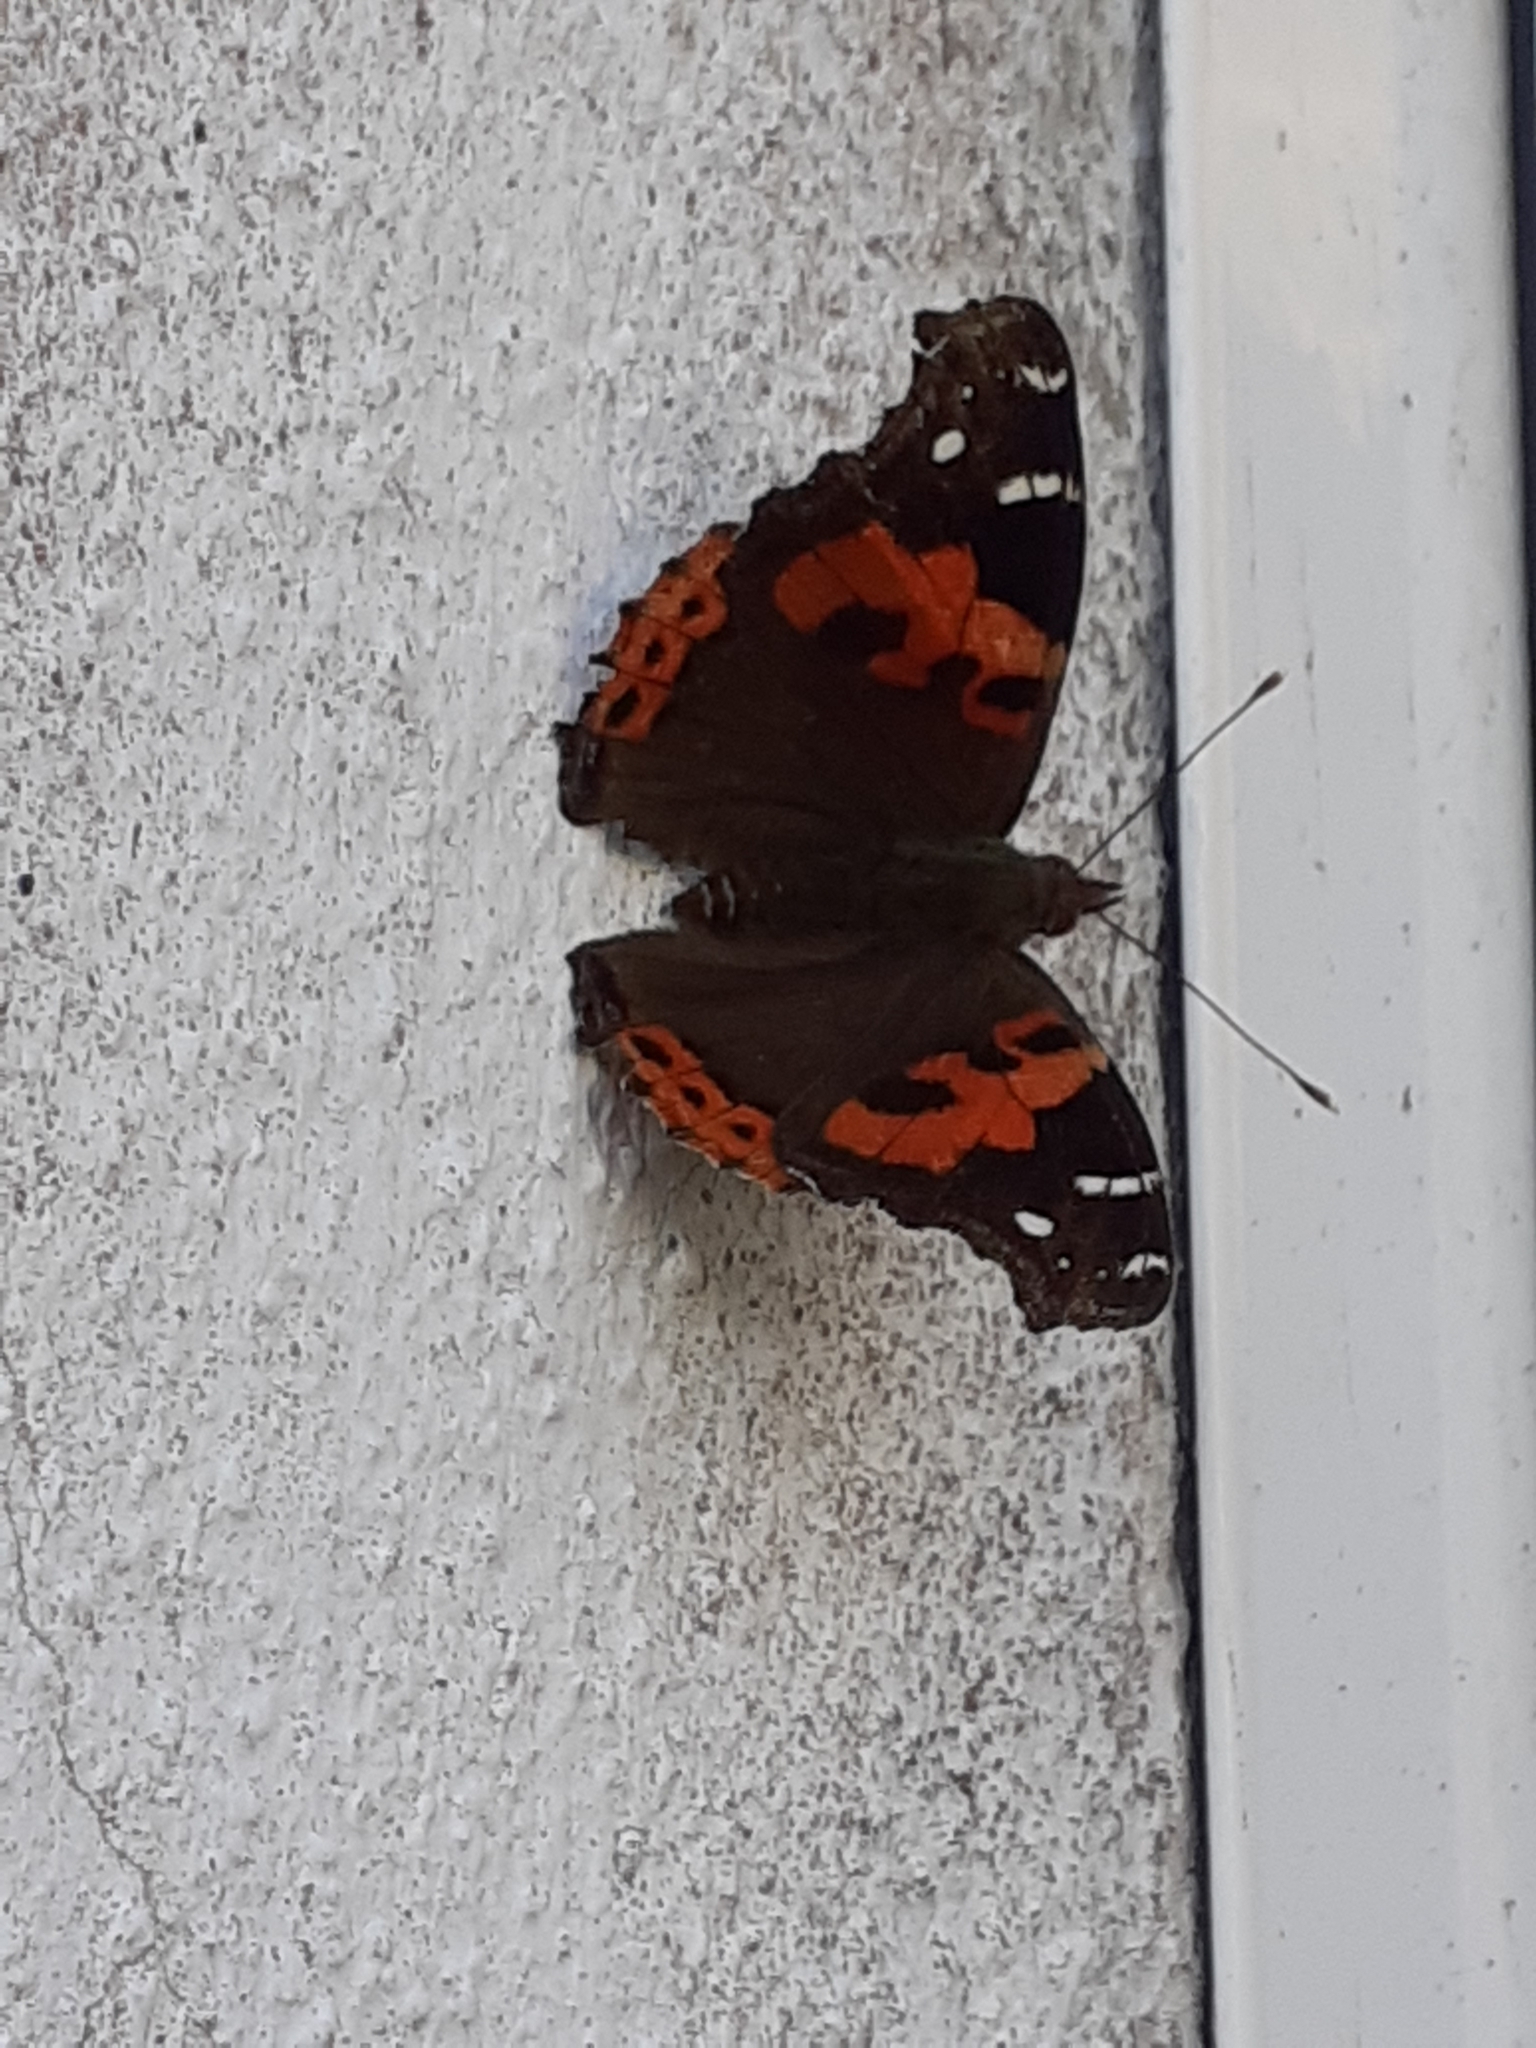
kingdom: Animalia
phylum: Arthropoda
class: Insecta
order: Lepidoptera
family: Nymphalidae
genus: Vanessa
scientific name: Vanessa vulcania
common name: Canary red admiral
